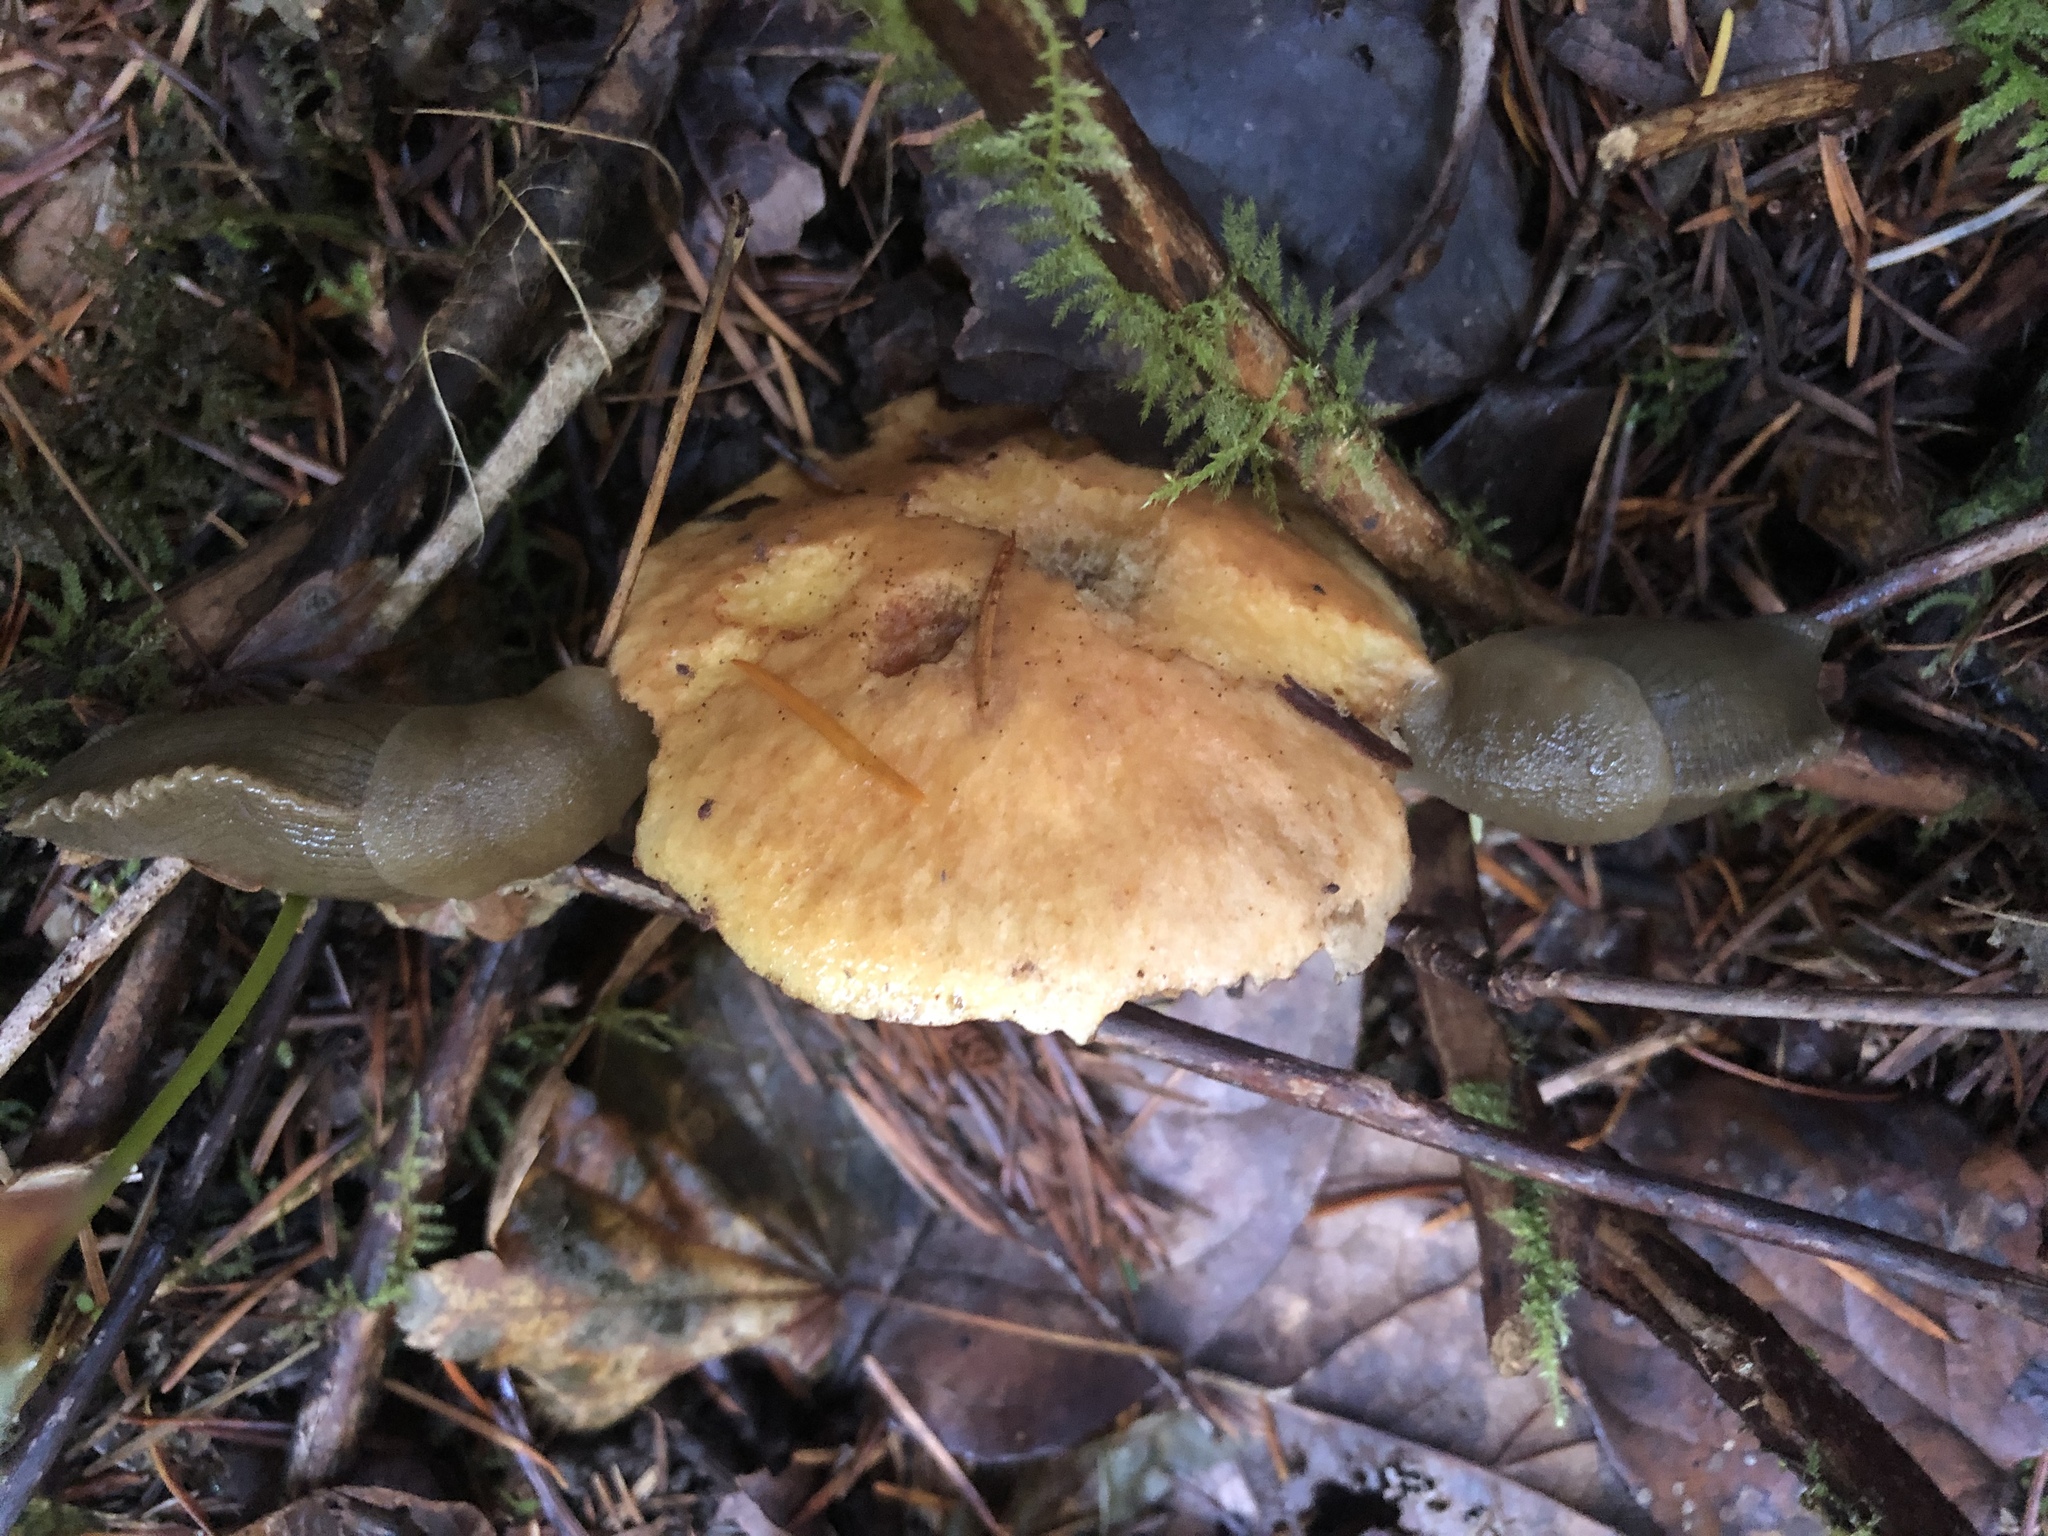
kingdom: Animalia
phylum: Mollusca
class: Gastropoda
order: Stylommatophora
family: Ariolimacidae
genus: Ariolimax
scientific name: Ariolimax columbianus
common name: Pacific banana slug
